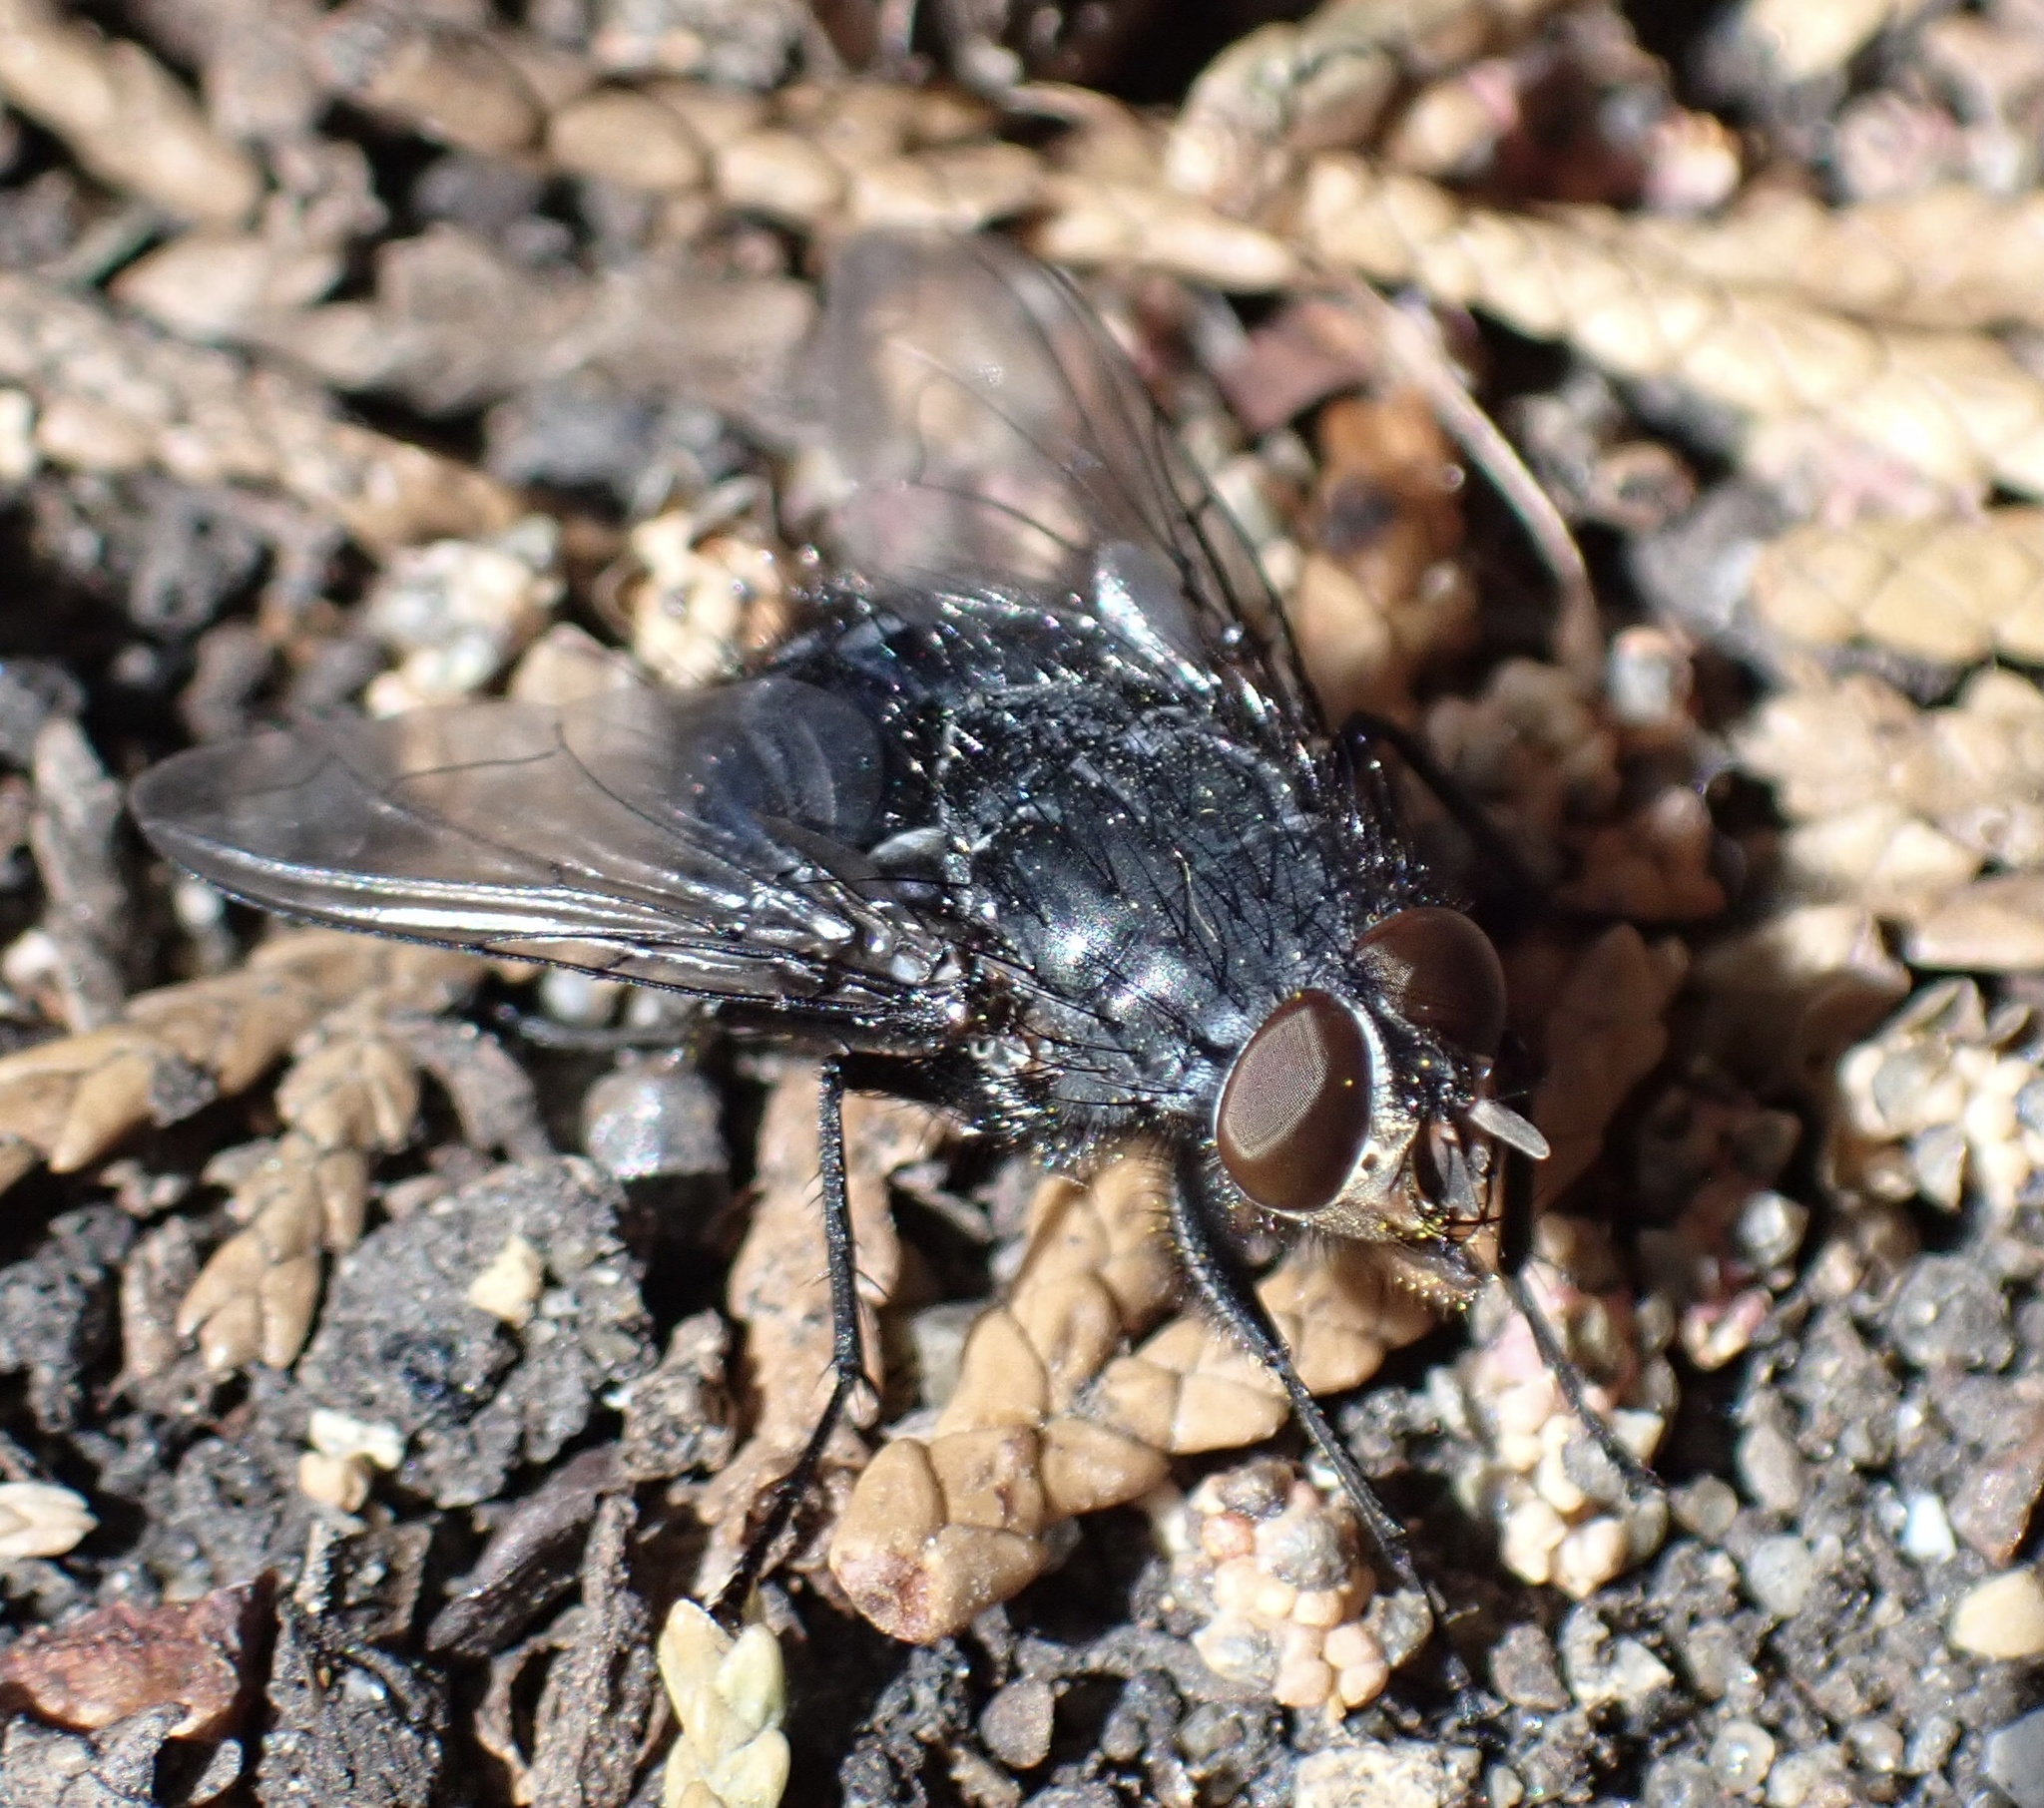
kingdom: Animalia
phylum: Arthropoda
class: Insecta
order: Diptera
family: Calliphoridae
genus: Calliphora
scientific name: Calliphora vicina
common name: Common blow flie
